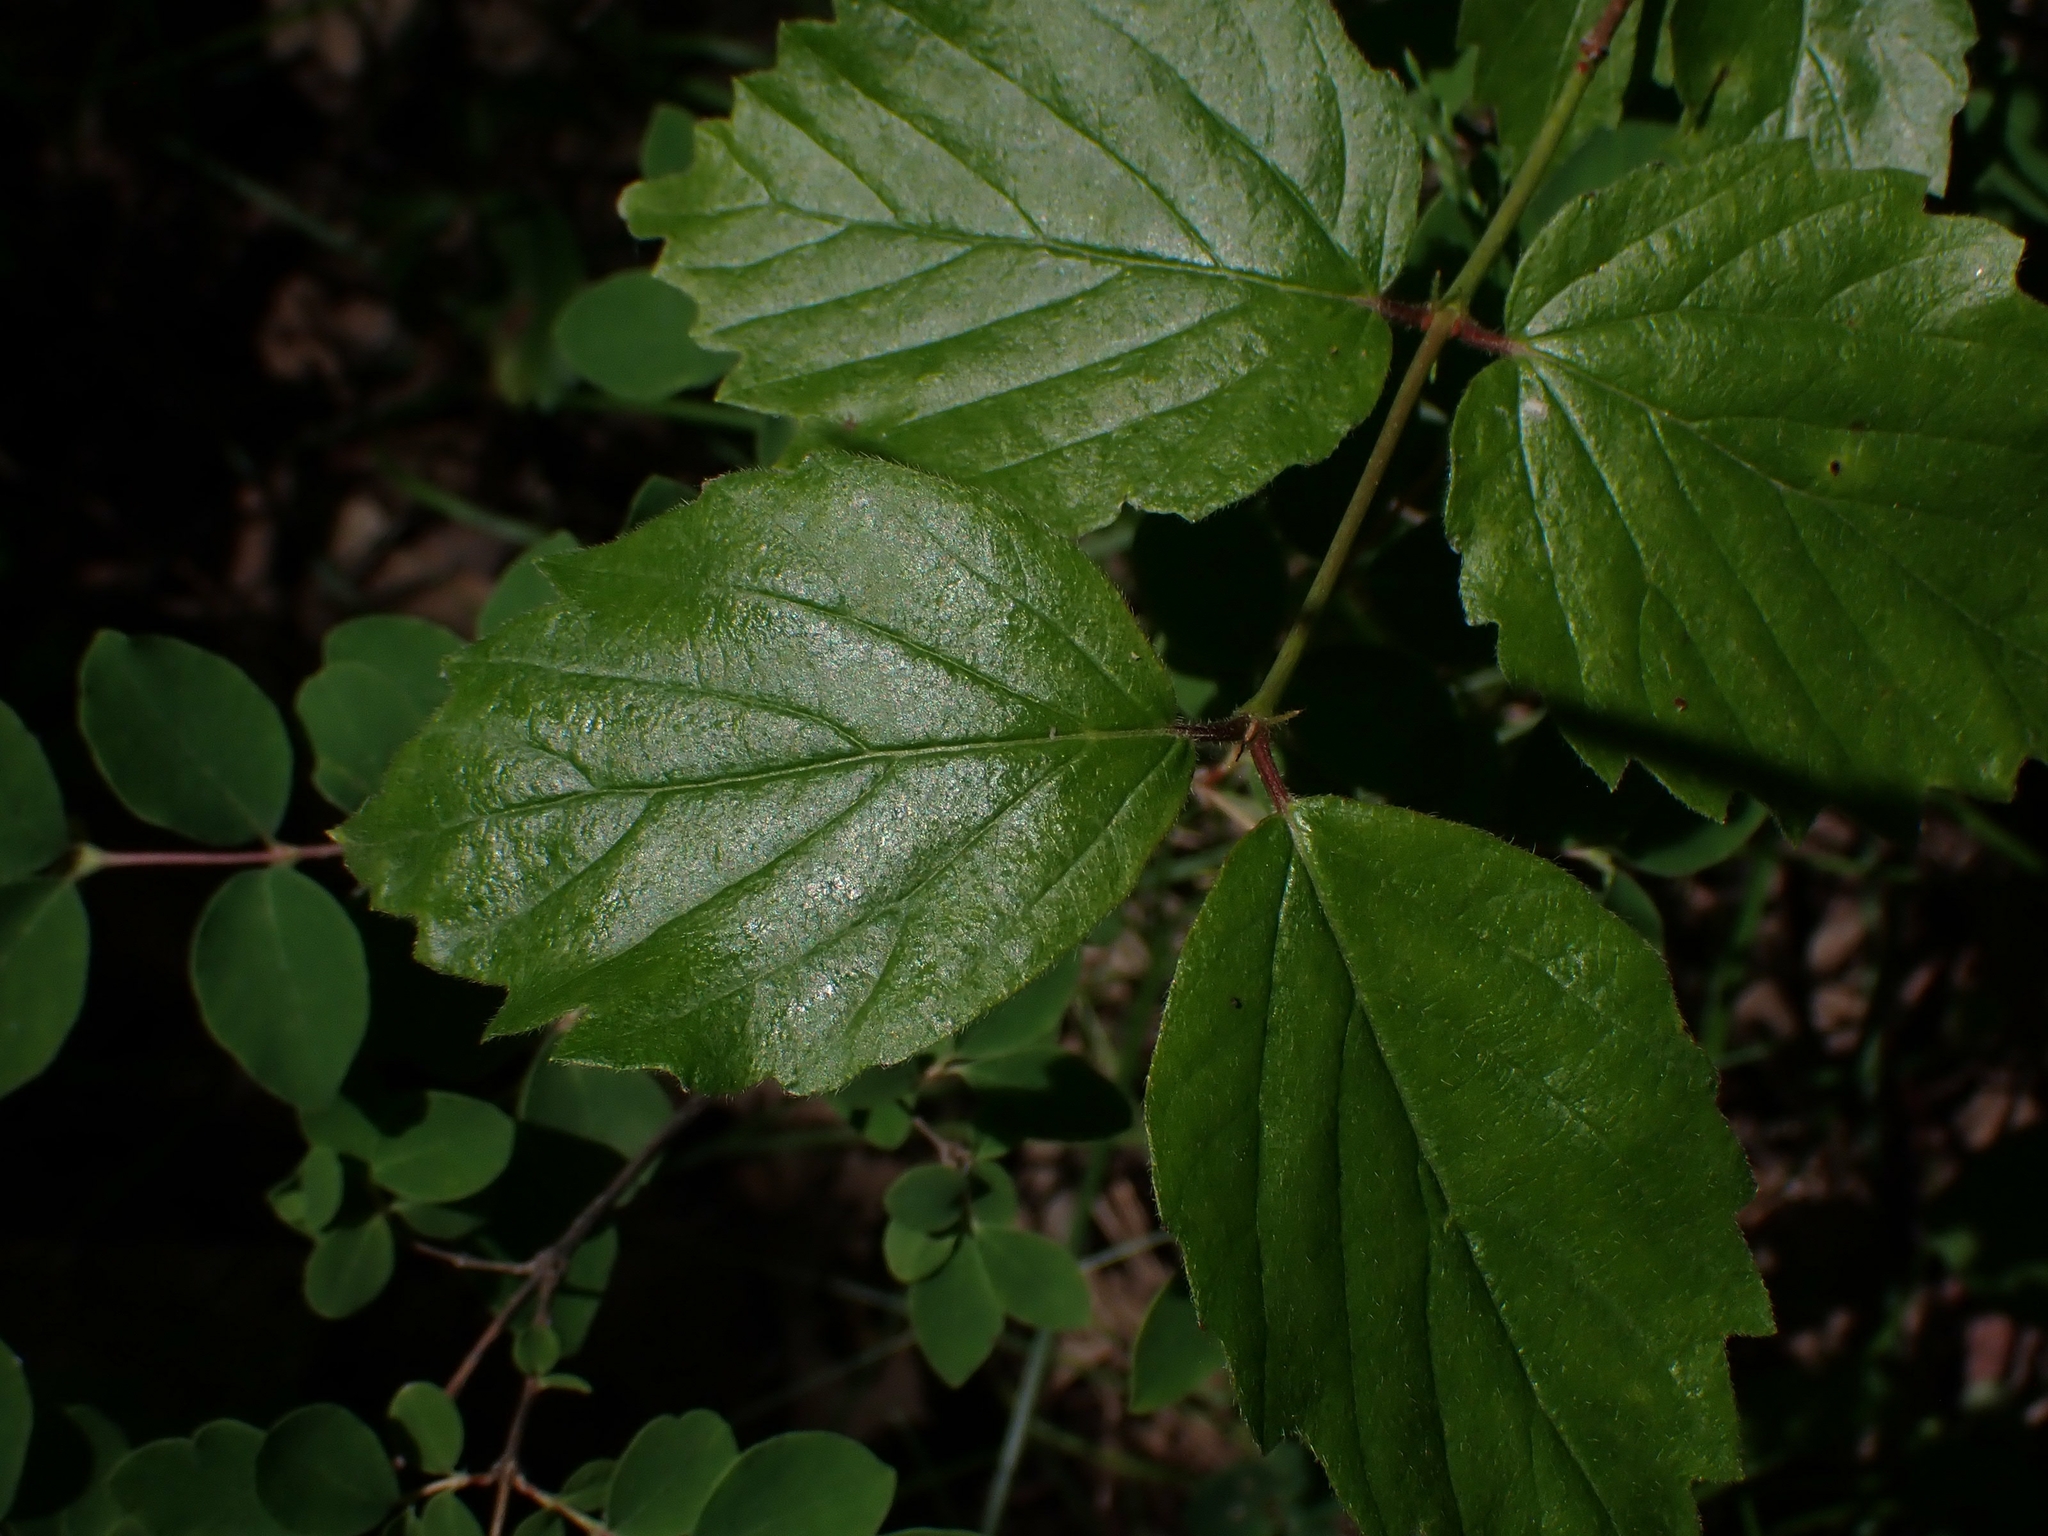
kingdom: Plantae
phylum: Tracheophyta
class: Magnoliopsida
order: Dipsacales
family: Viburnaceae
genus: Viburnum
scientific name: Viburnum rafinesqueanum
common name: Downy arrow-wood
